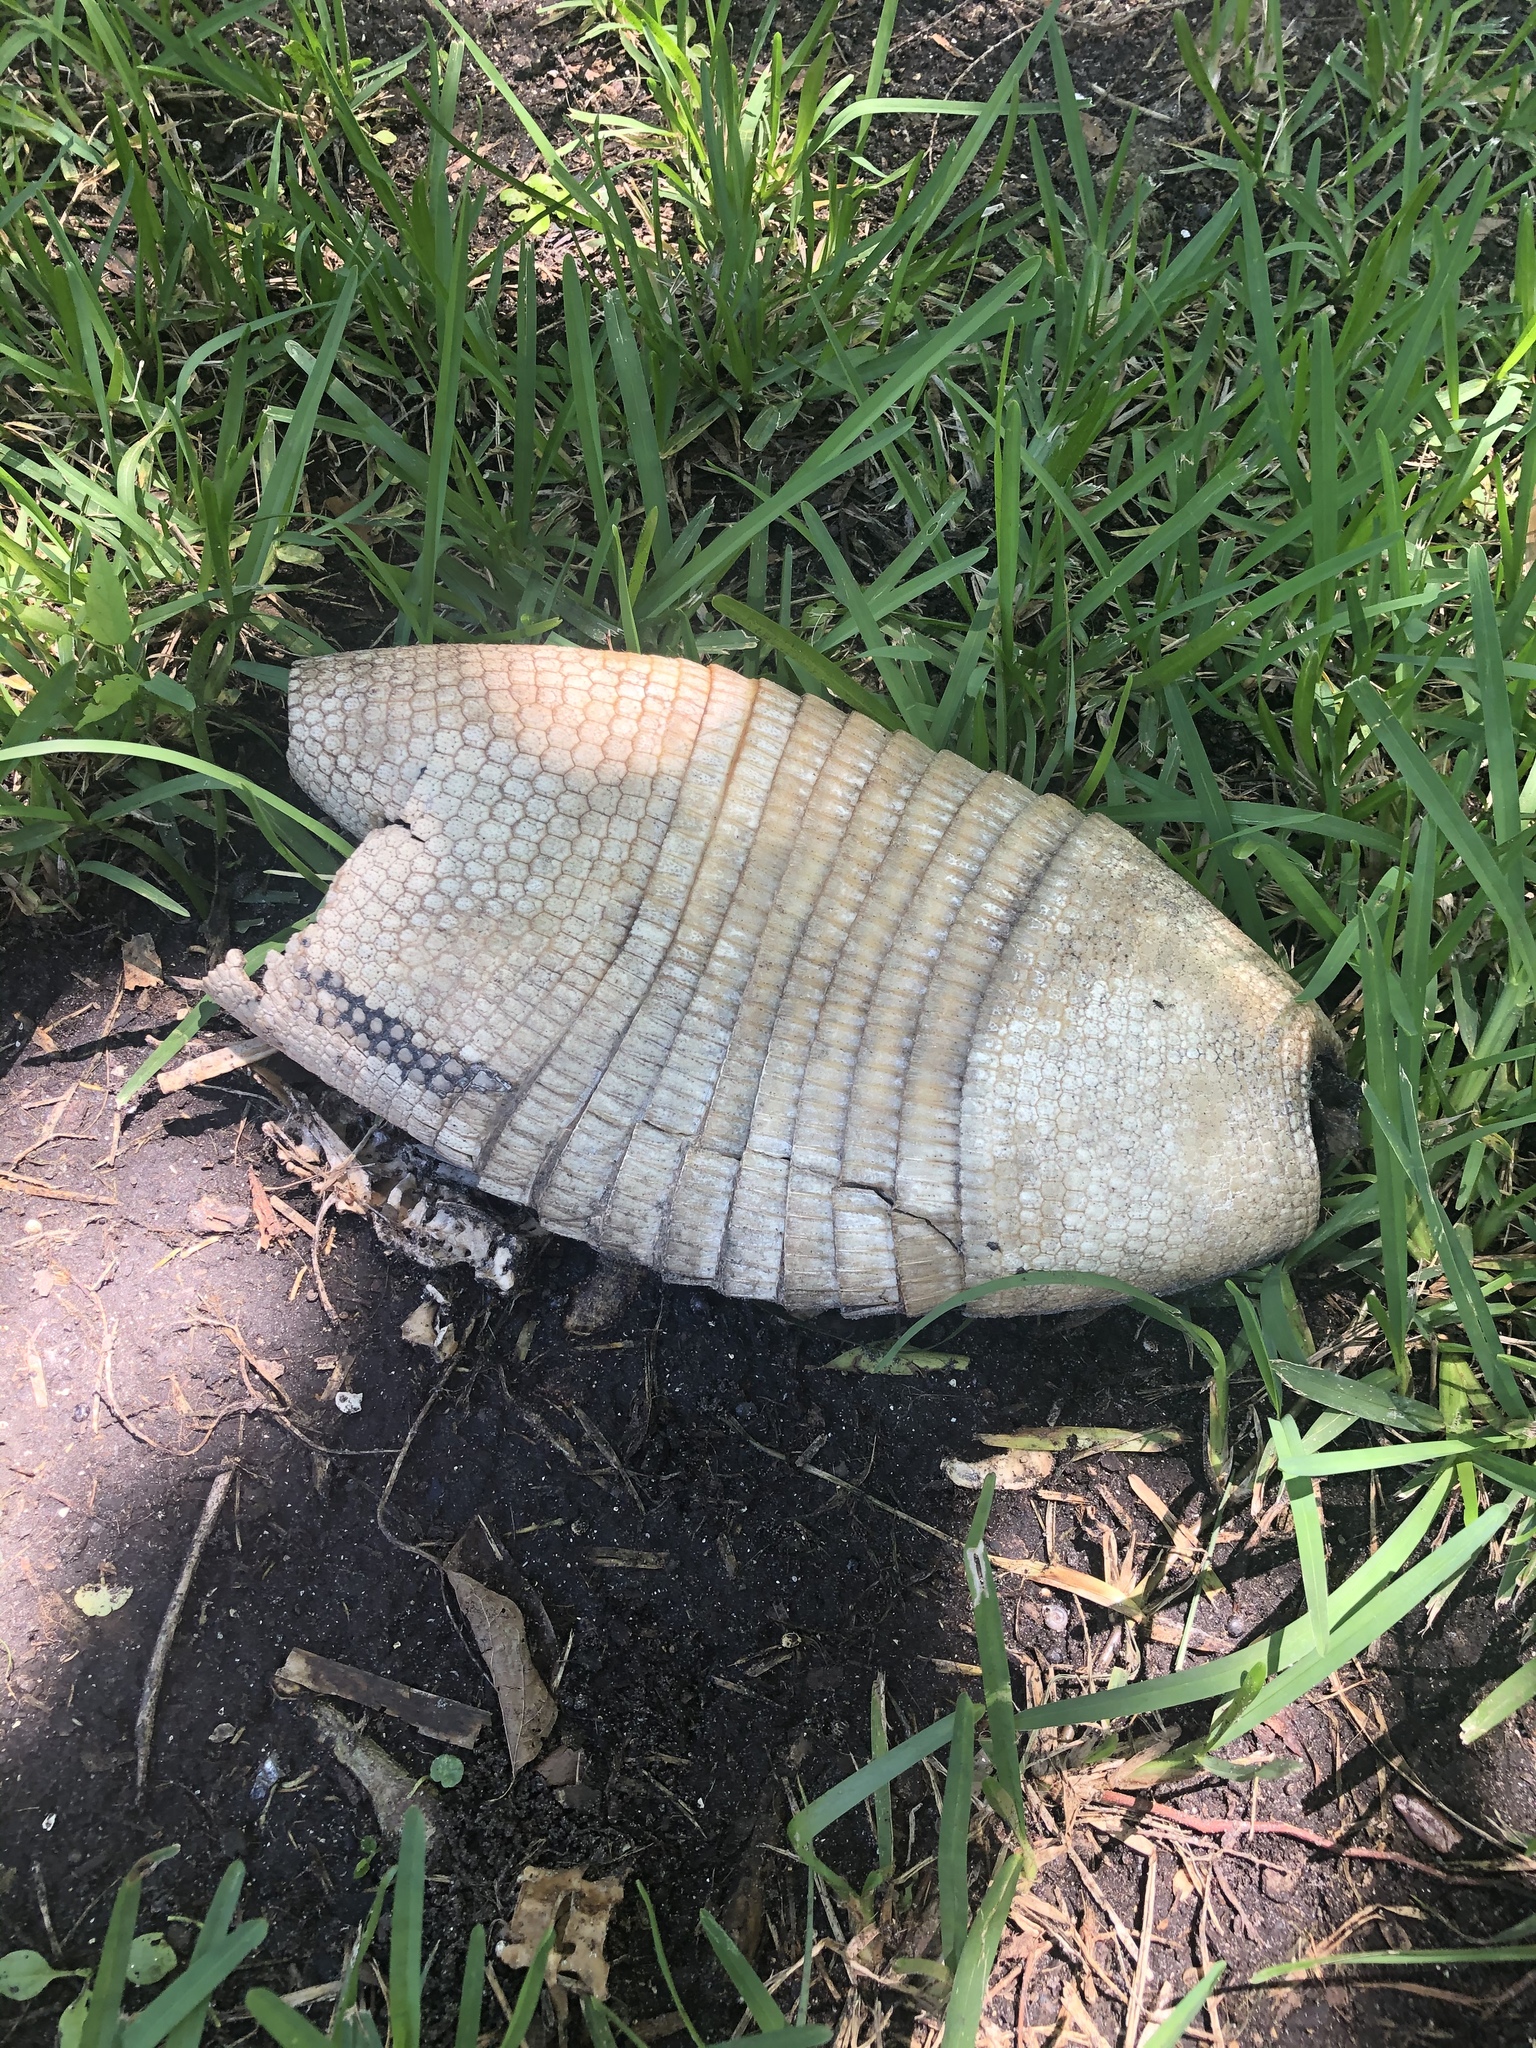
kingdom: Animalia
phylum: Chordata
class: Mammalia
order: Cingulata
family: Dasypodidae
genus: Dasypus
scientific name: Dasypus novemcinctus
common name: Nine-banded armadillo
